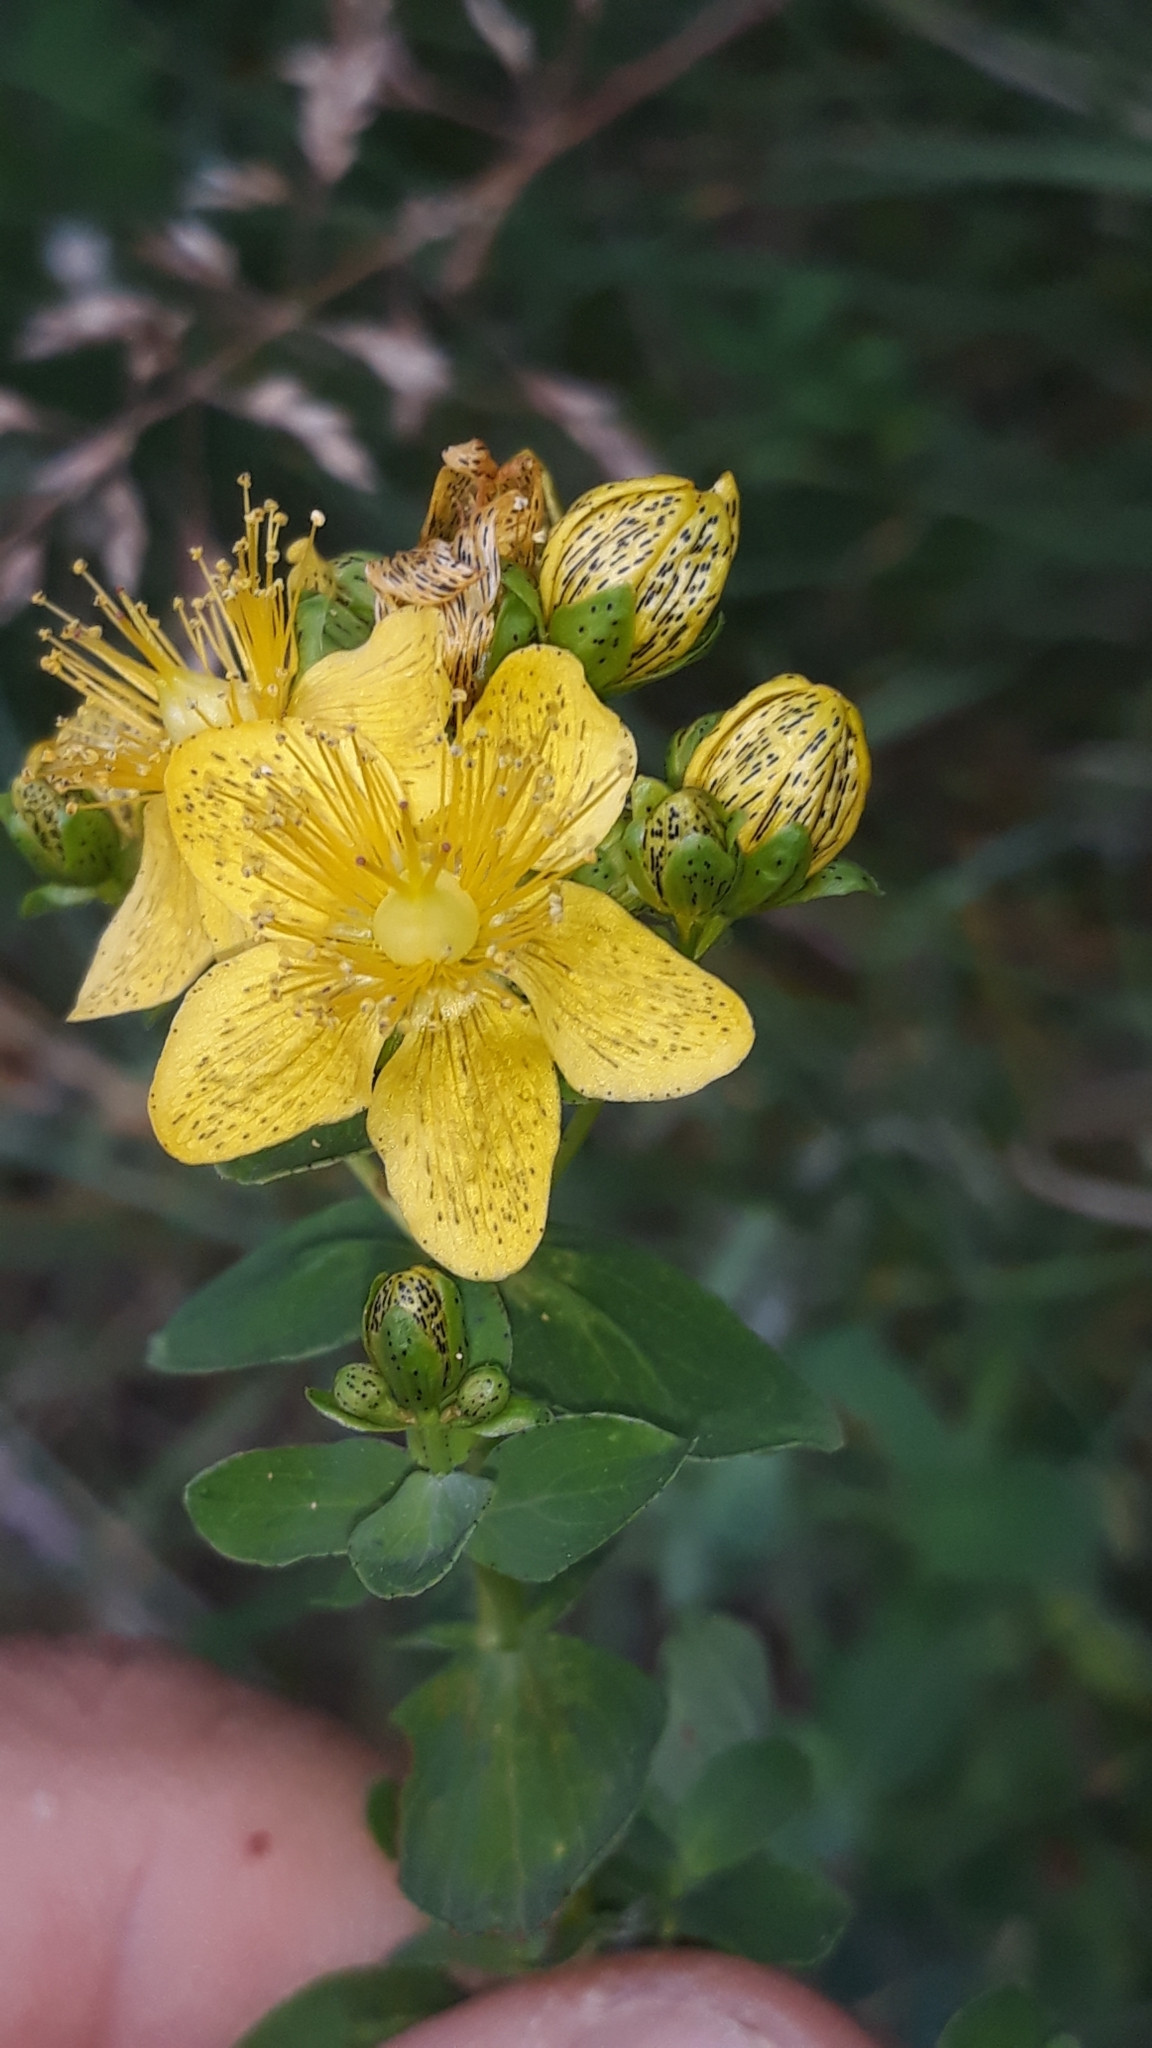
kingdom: Plantae
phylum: Tracheophyta
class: Magnoliopsida
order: Malpighiales
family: Hypericaceae
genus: Hypericum
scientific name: Hypericum maculatum
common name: Imperforate st. john's-wort
